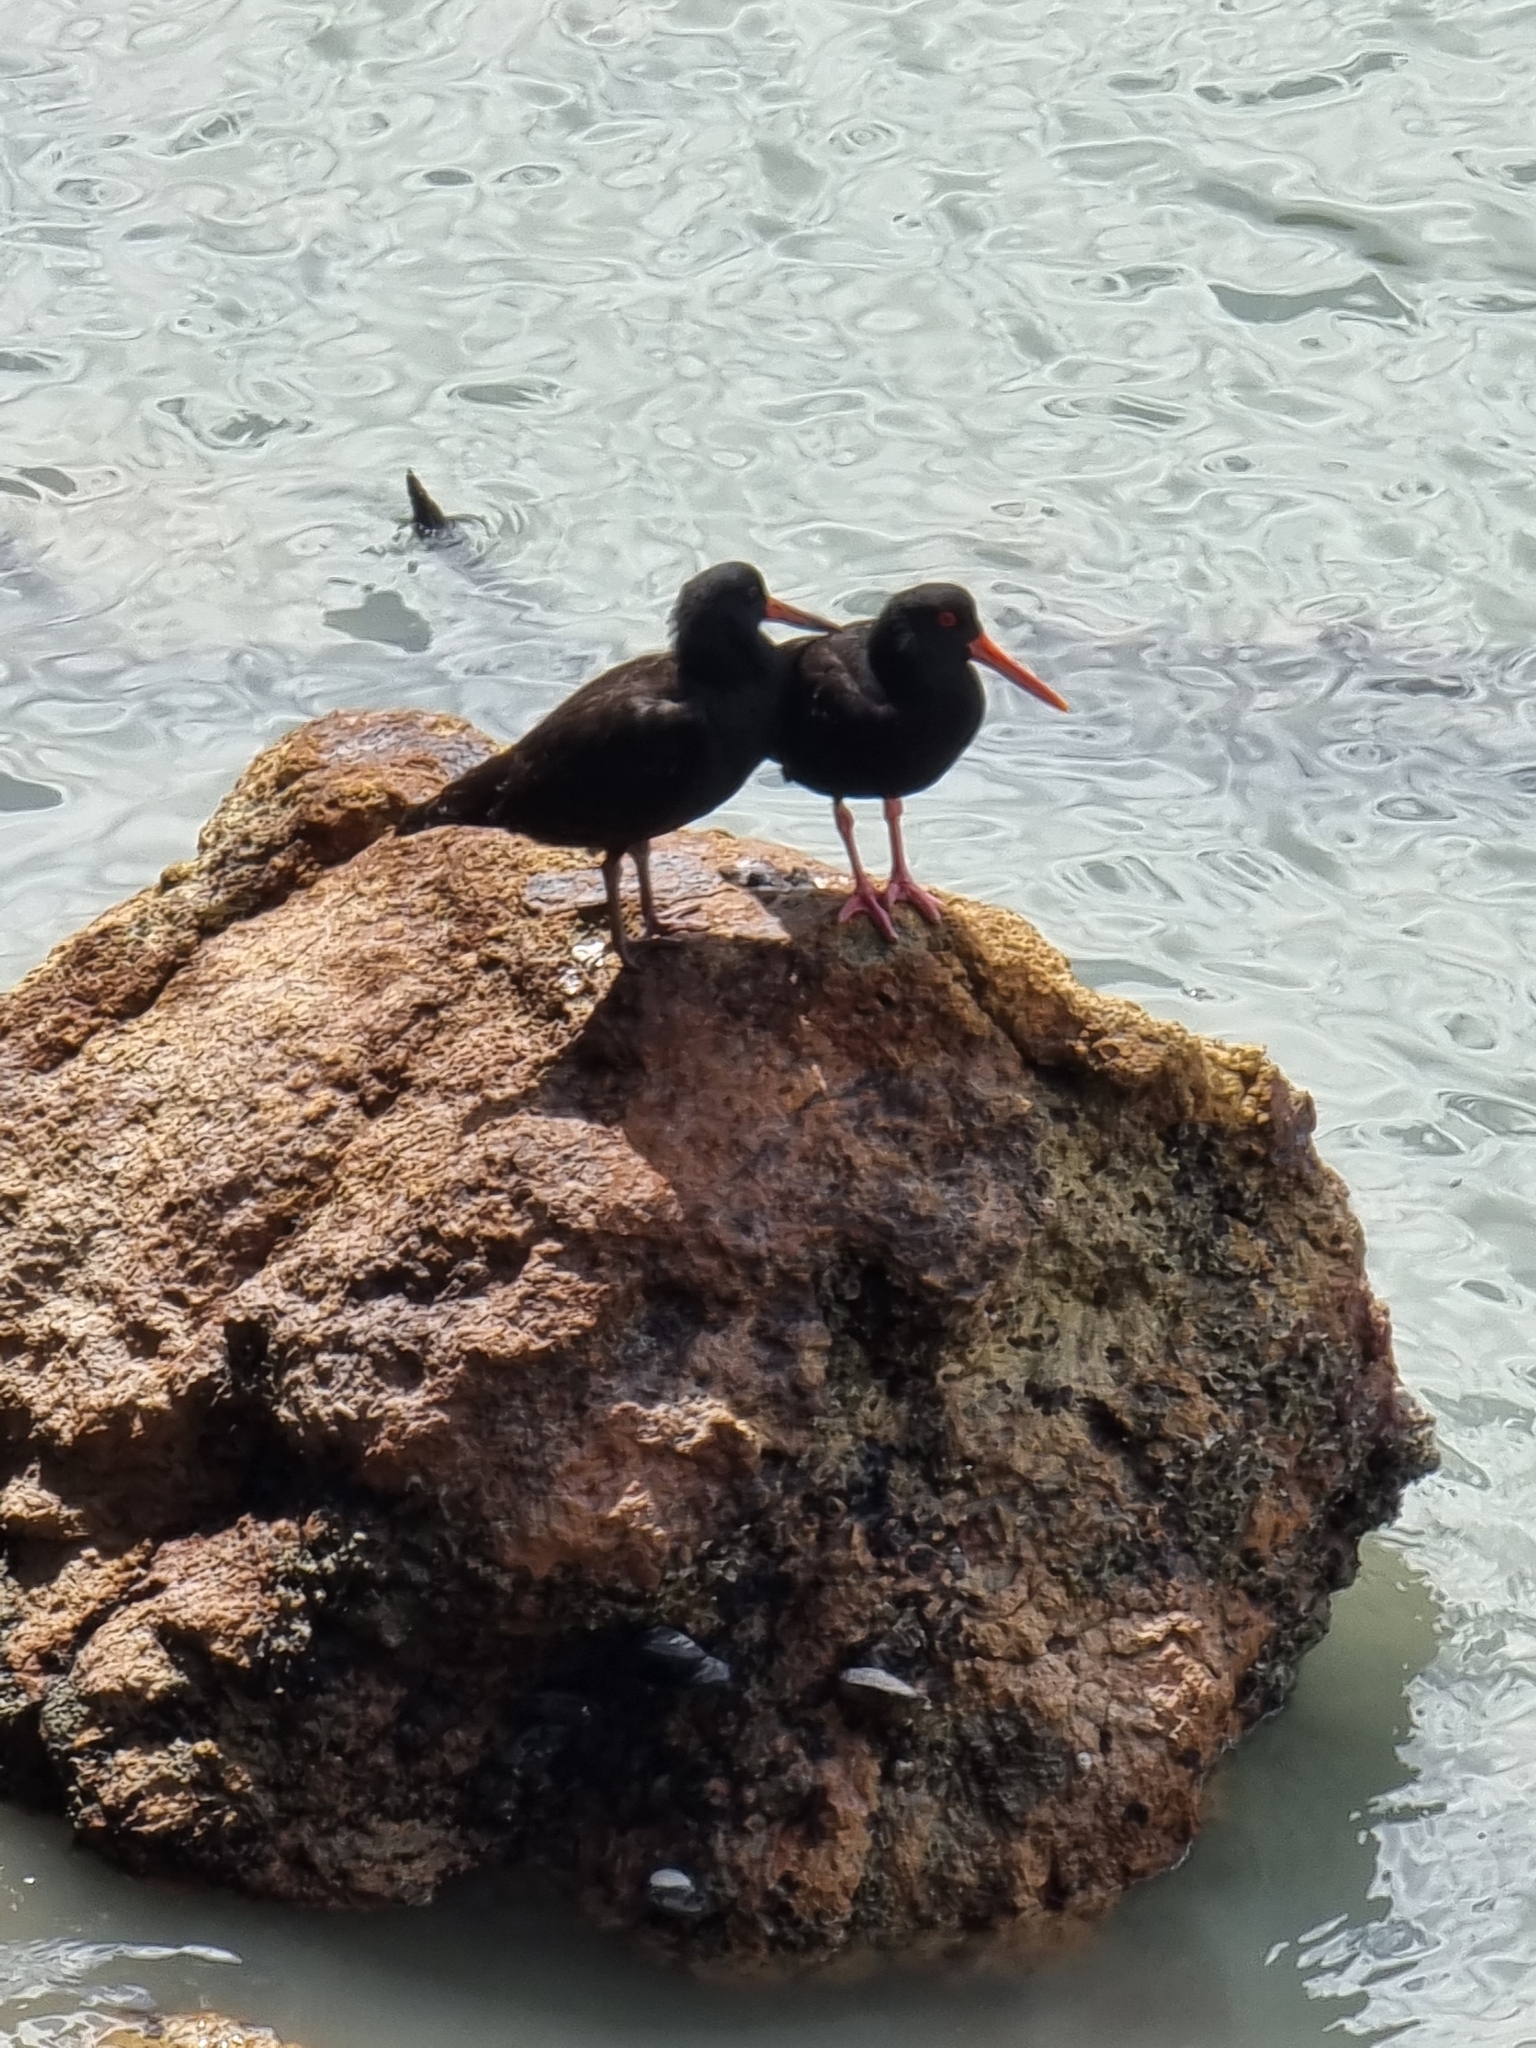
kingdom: Animalia
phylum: Chordata
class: Aves
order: Charadriiformes
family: Haematopodidae
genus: Haematopus
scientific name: Haematopus unicolor
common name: Variable oystercatcher
